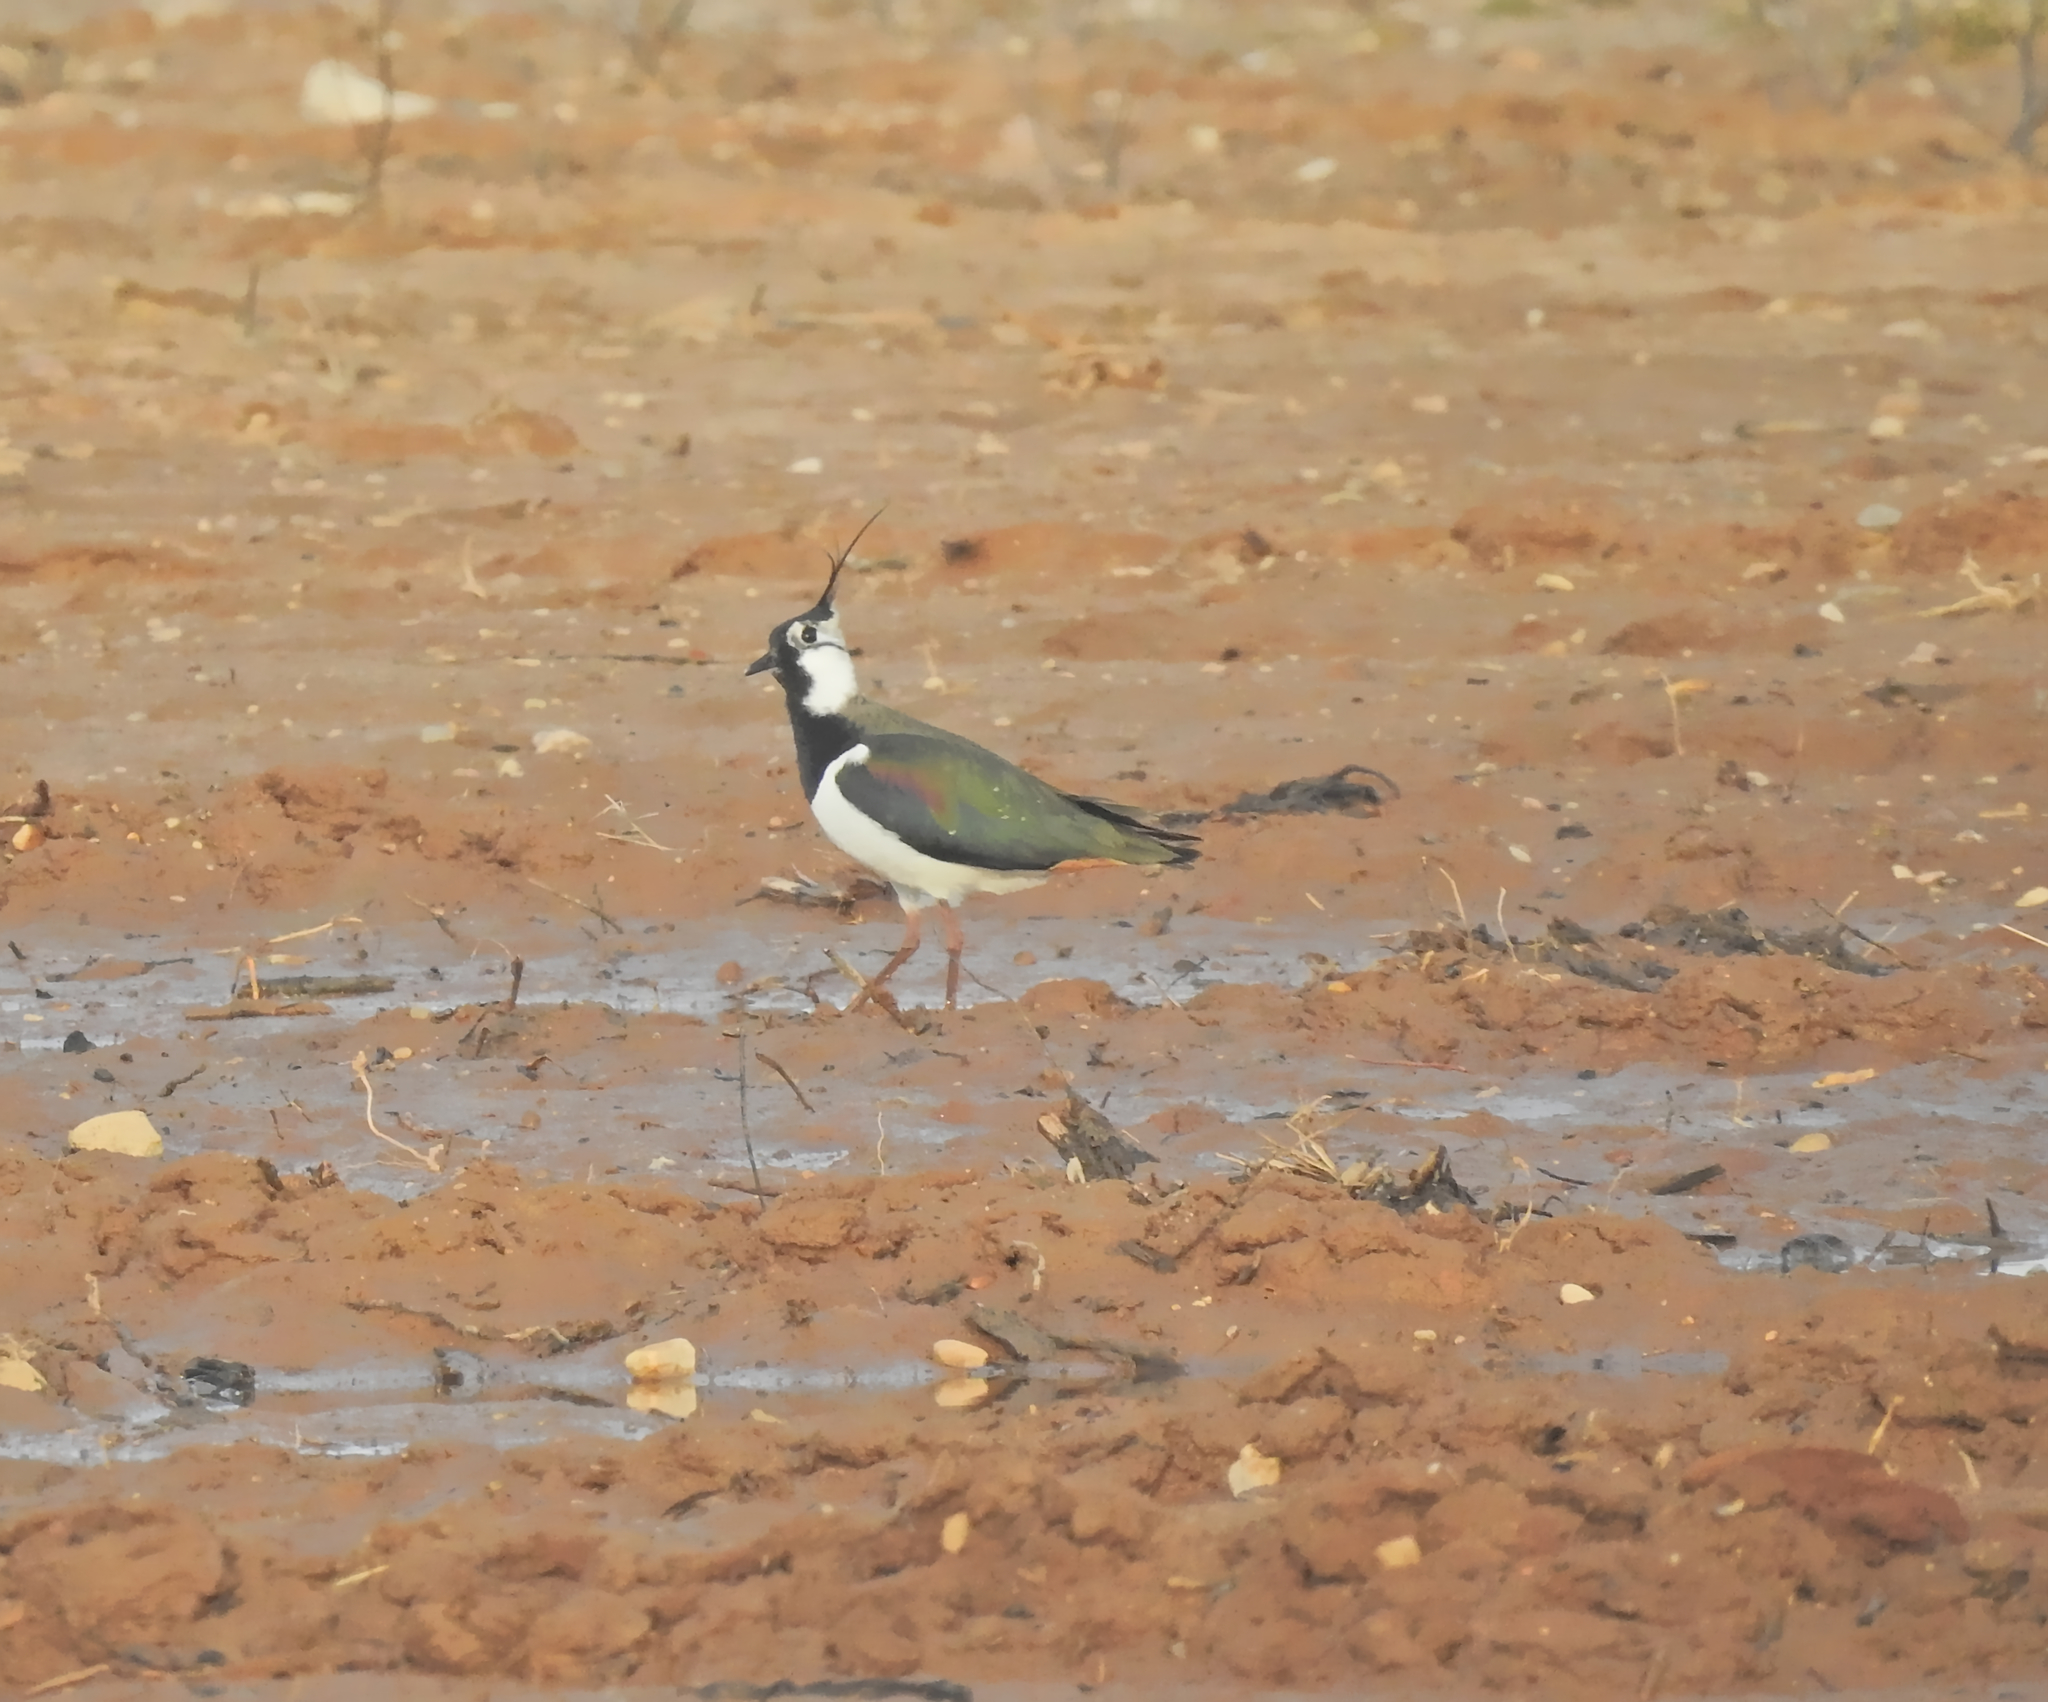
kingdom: Animalia
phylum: Chordata
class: Aves
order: Charadriiformes
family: Charadriidae
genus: Vanellus
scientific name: Vanellus vanellus
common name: Northern lapwing
